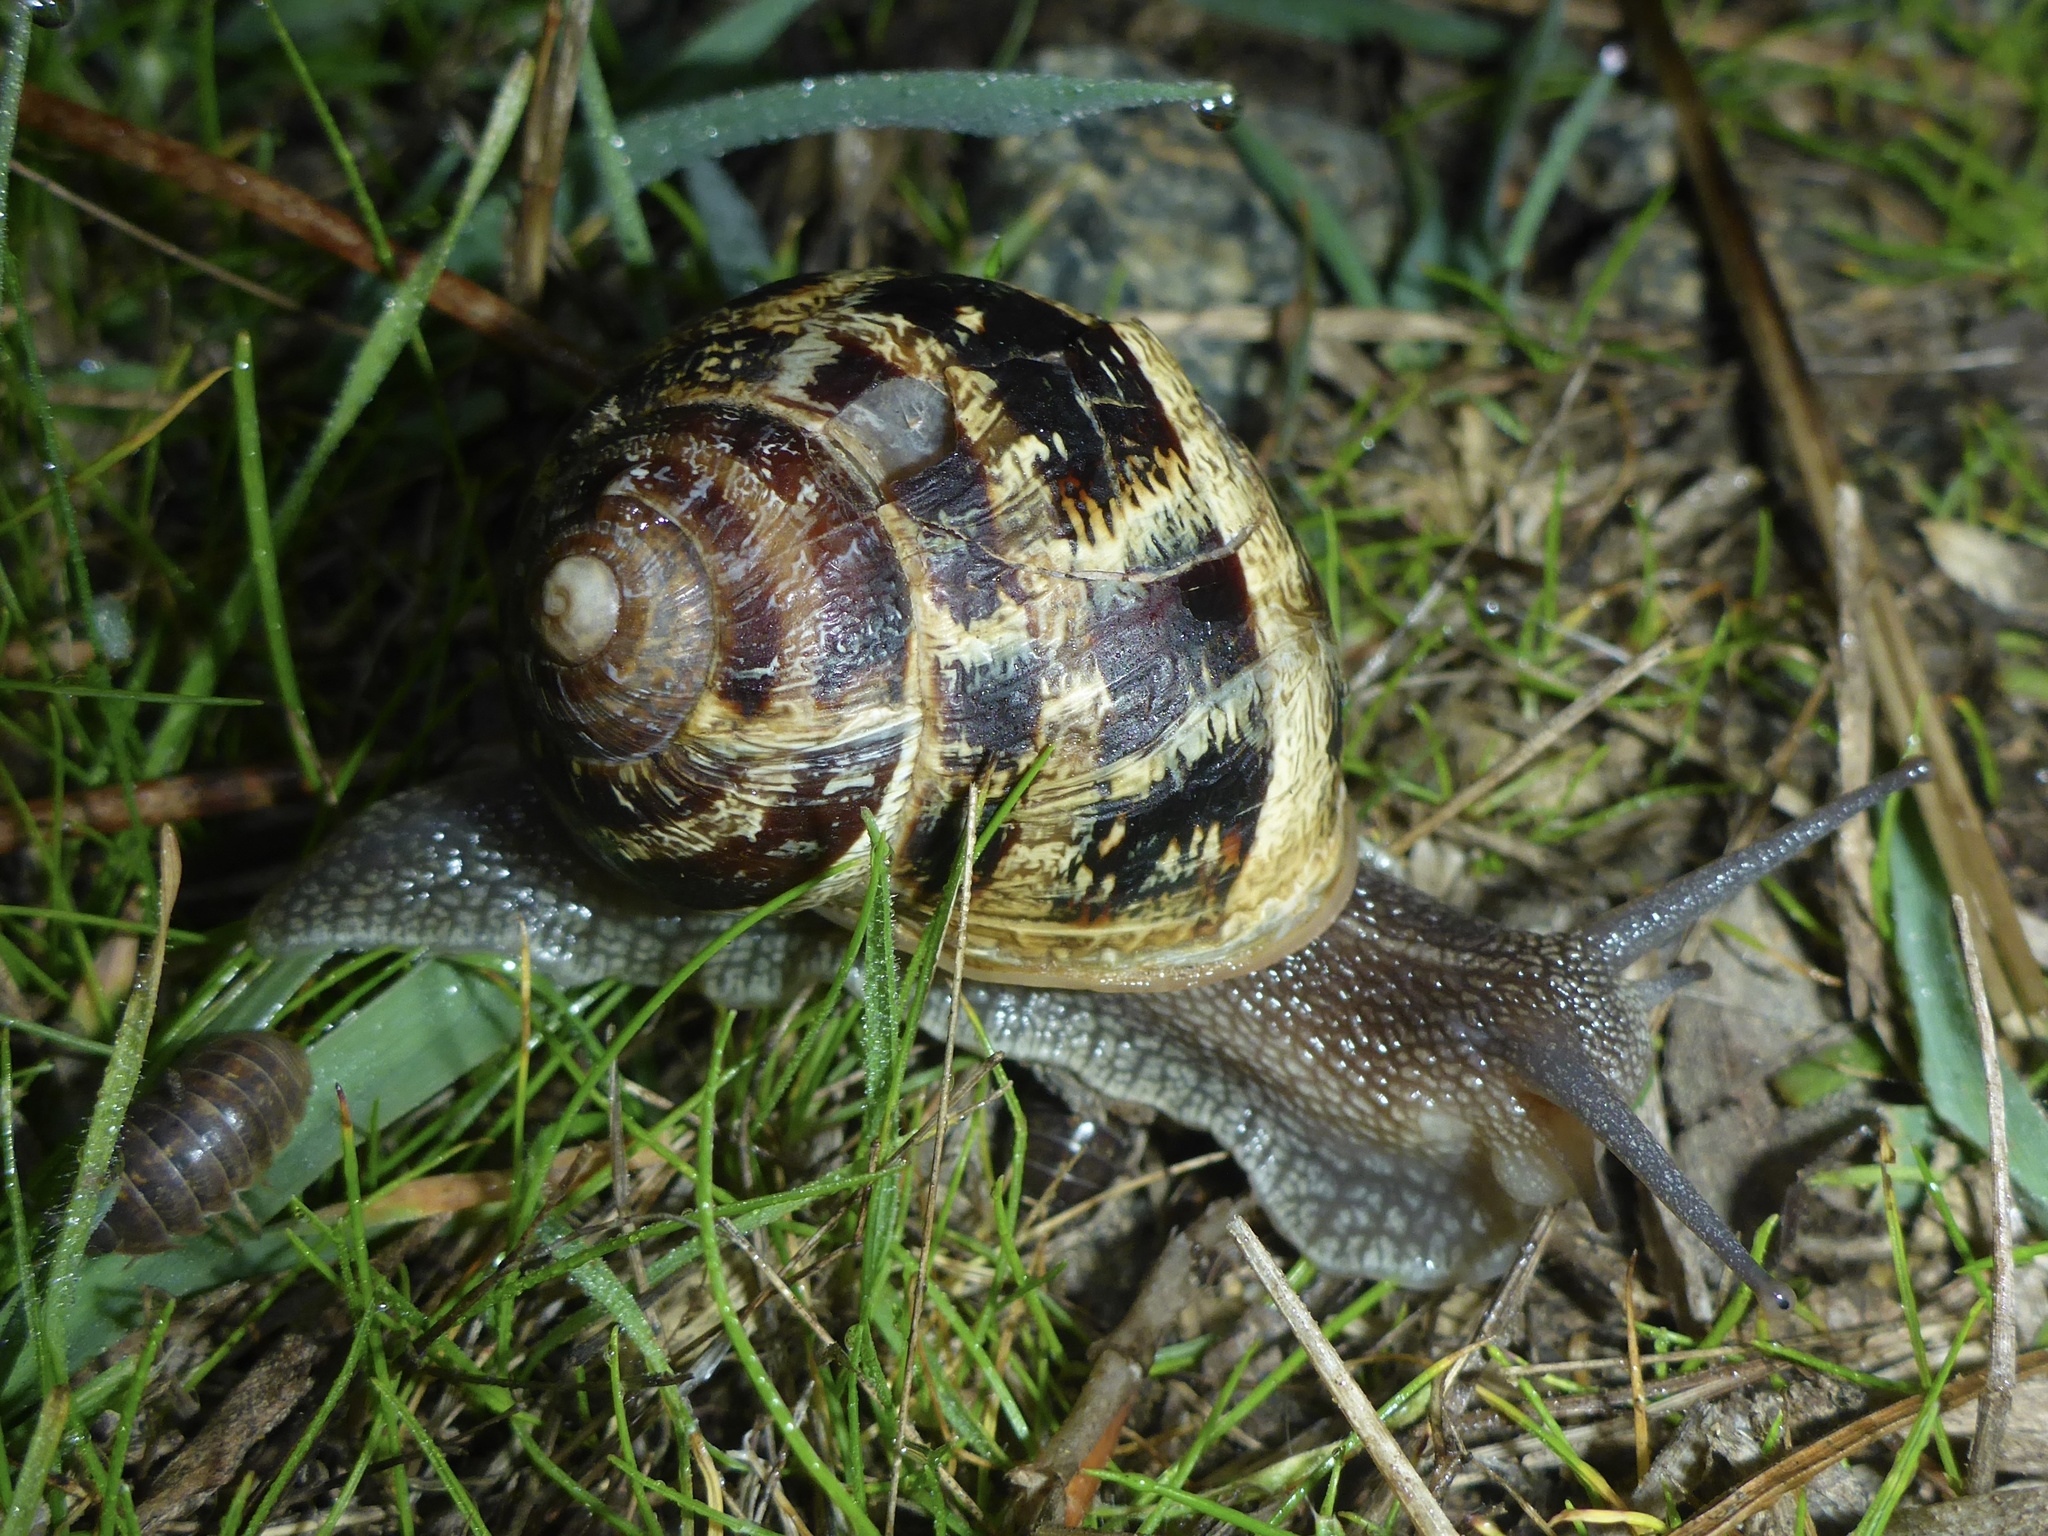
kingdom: Animalia
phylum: Mollusca
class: Gastropoda
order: Stylommatophora
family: Helicidae
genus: Cornu
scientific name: Cornu aspersum
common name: Brown garden snail
